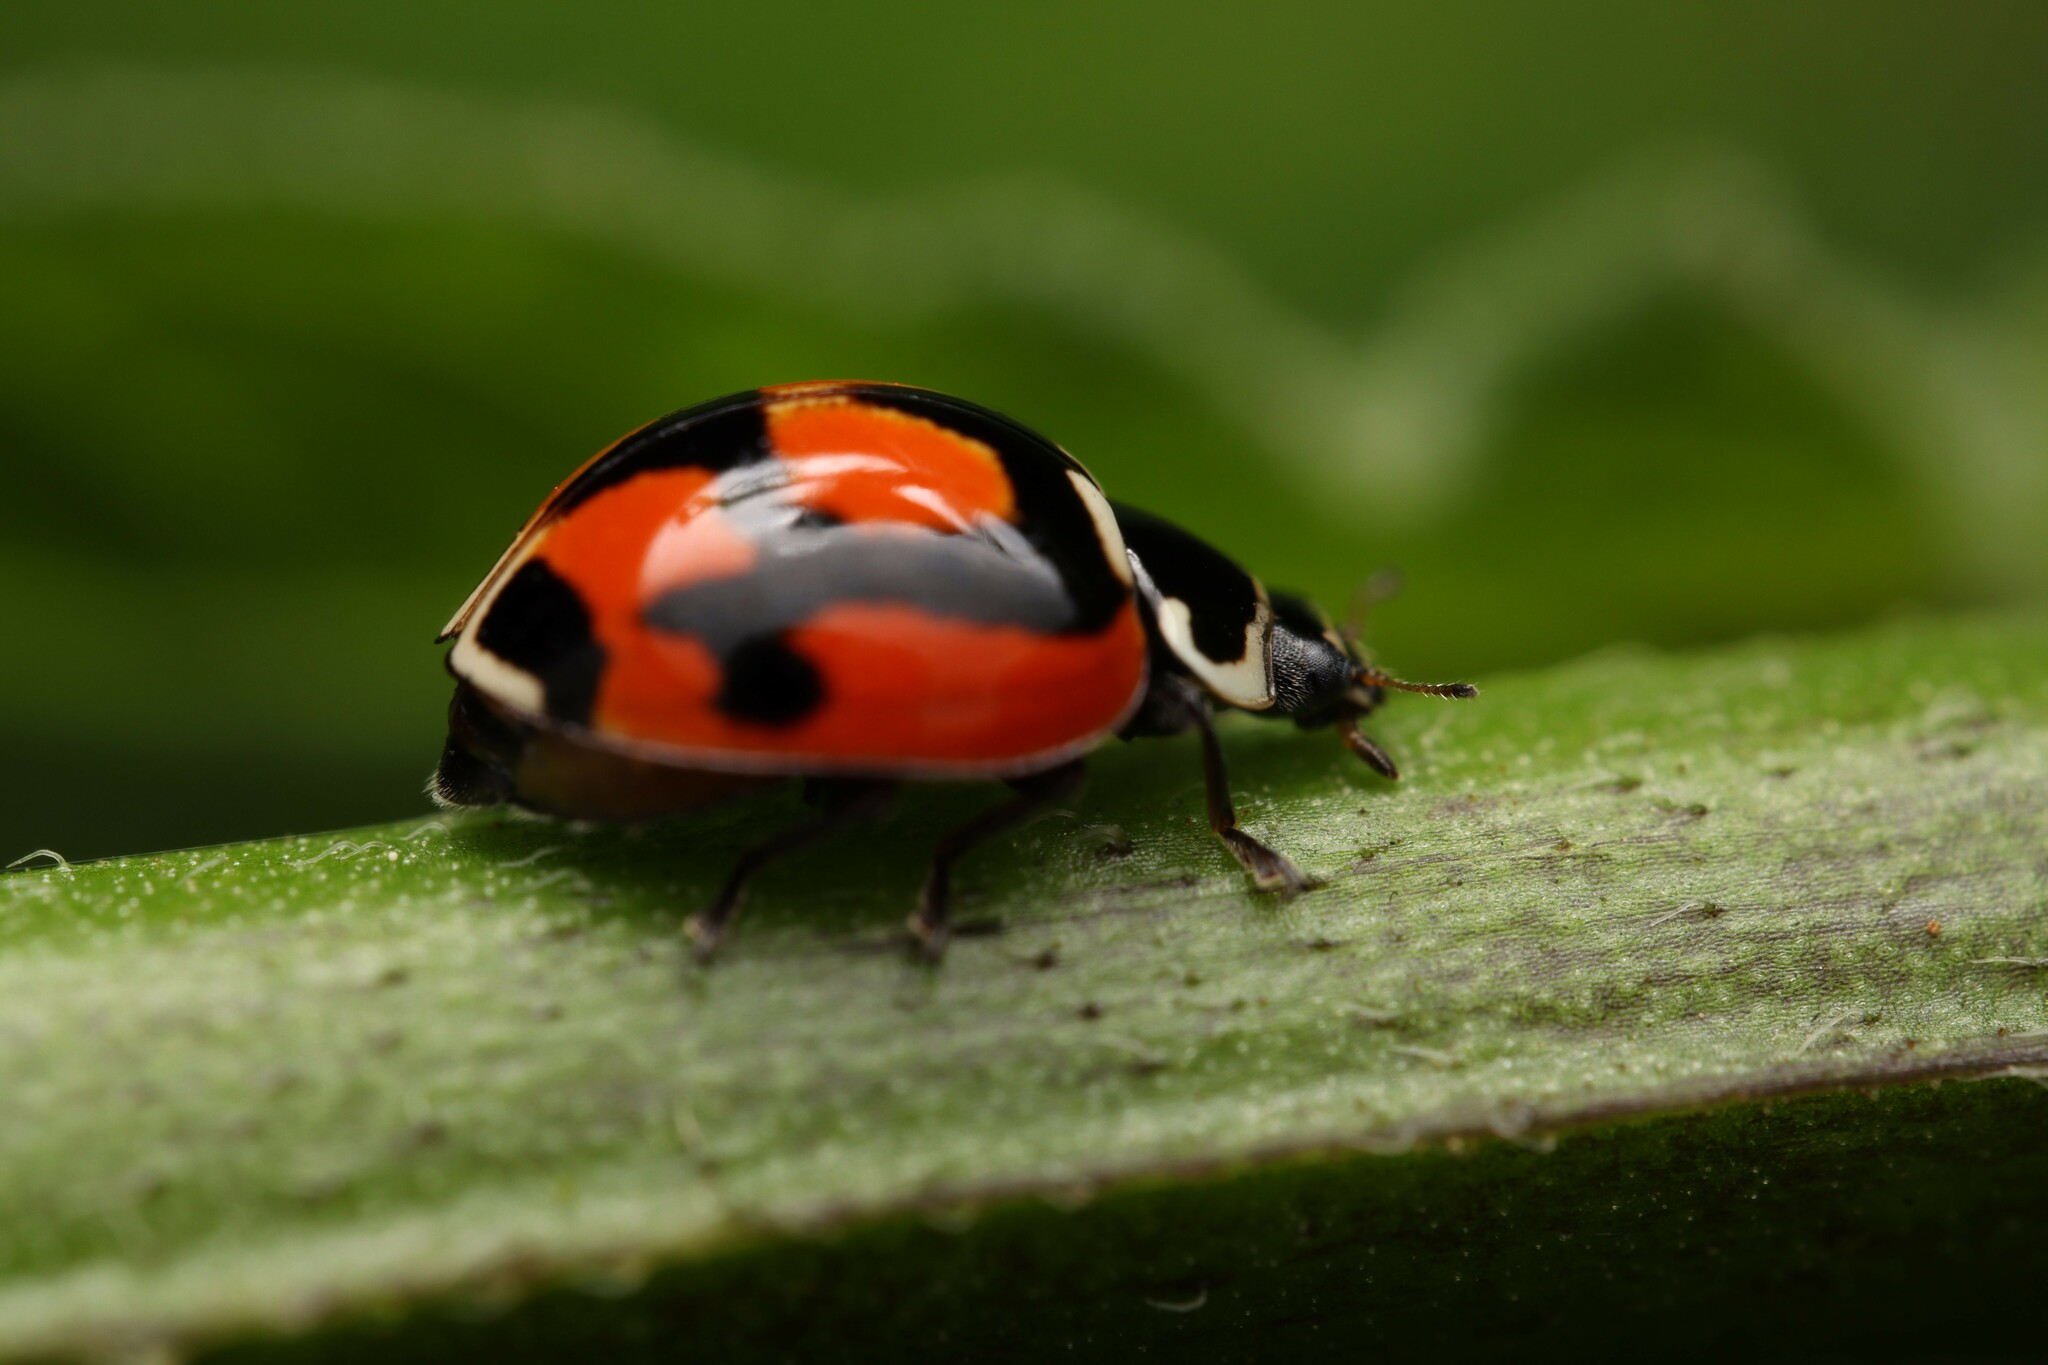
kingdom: Animalia
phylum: Arthropoda
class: Insecta
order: Coleoptera
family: Coccinellidae
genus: Adalia
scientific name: Adalia deficiens
